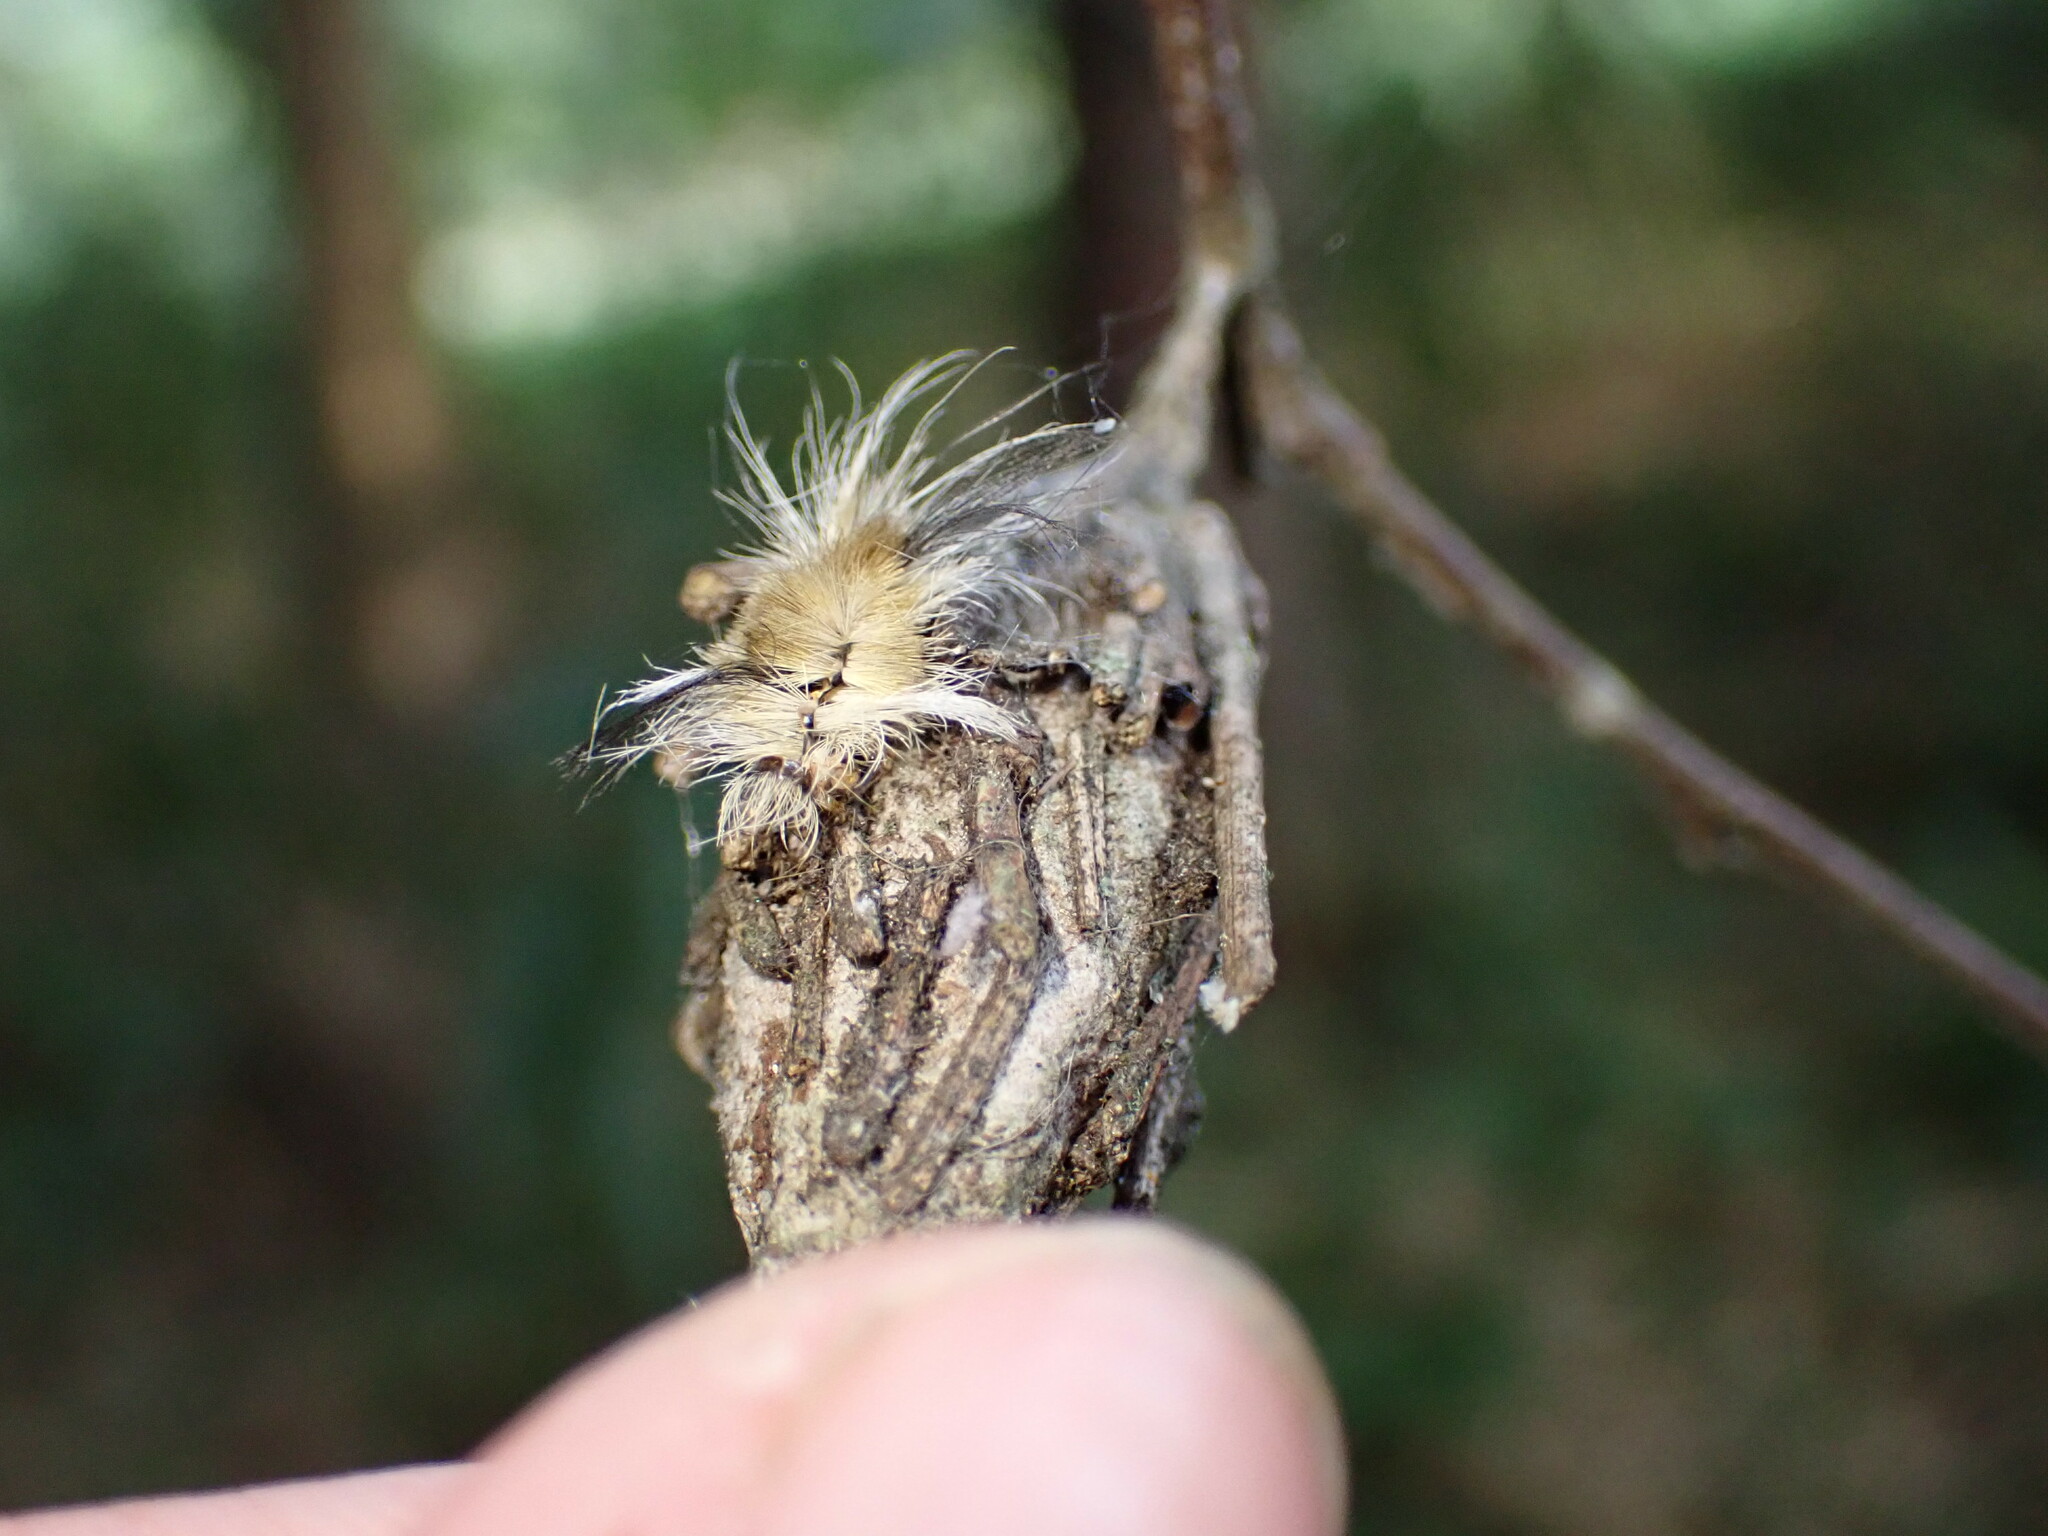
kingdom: Animalia
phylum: Arthropoda
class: Insecta
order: Lepidoptera
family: Erebidae
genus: Halysidota
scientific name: Halysidota tessellaris
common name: Banded tussock moth
